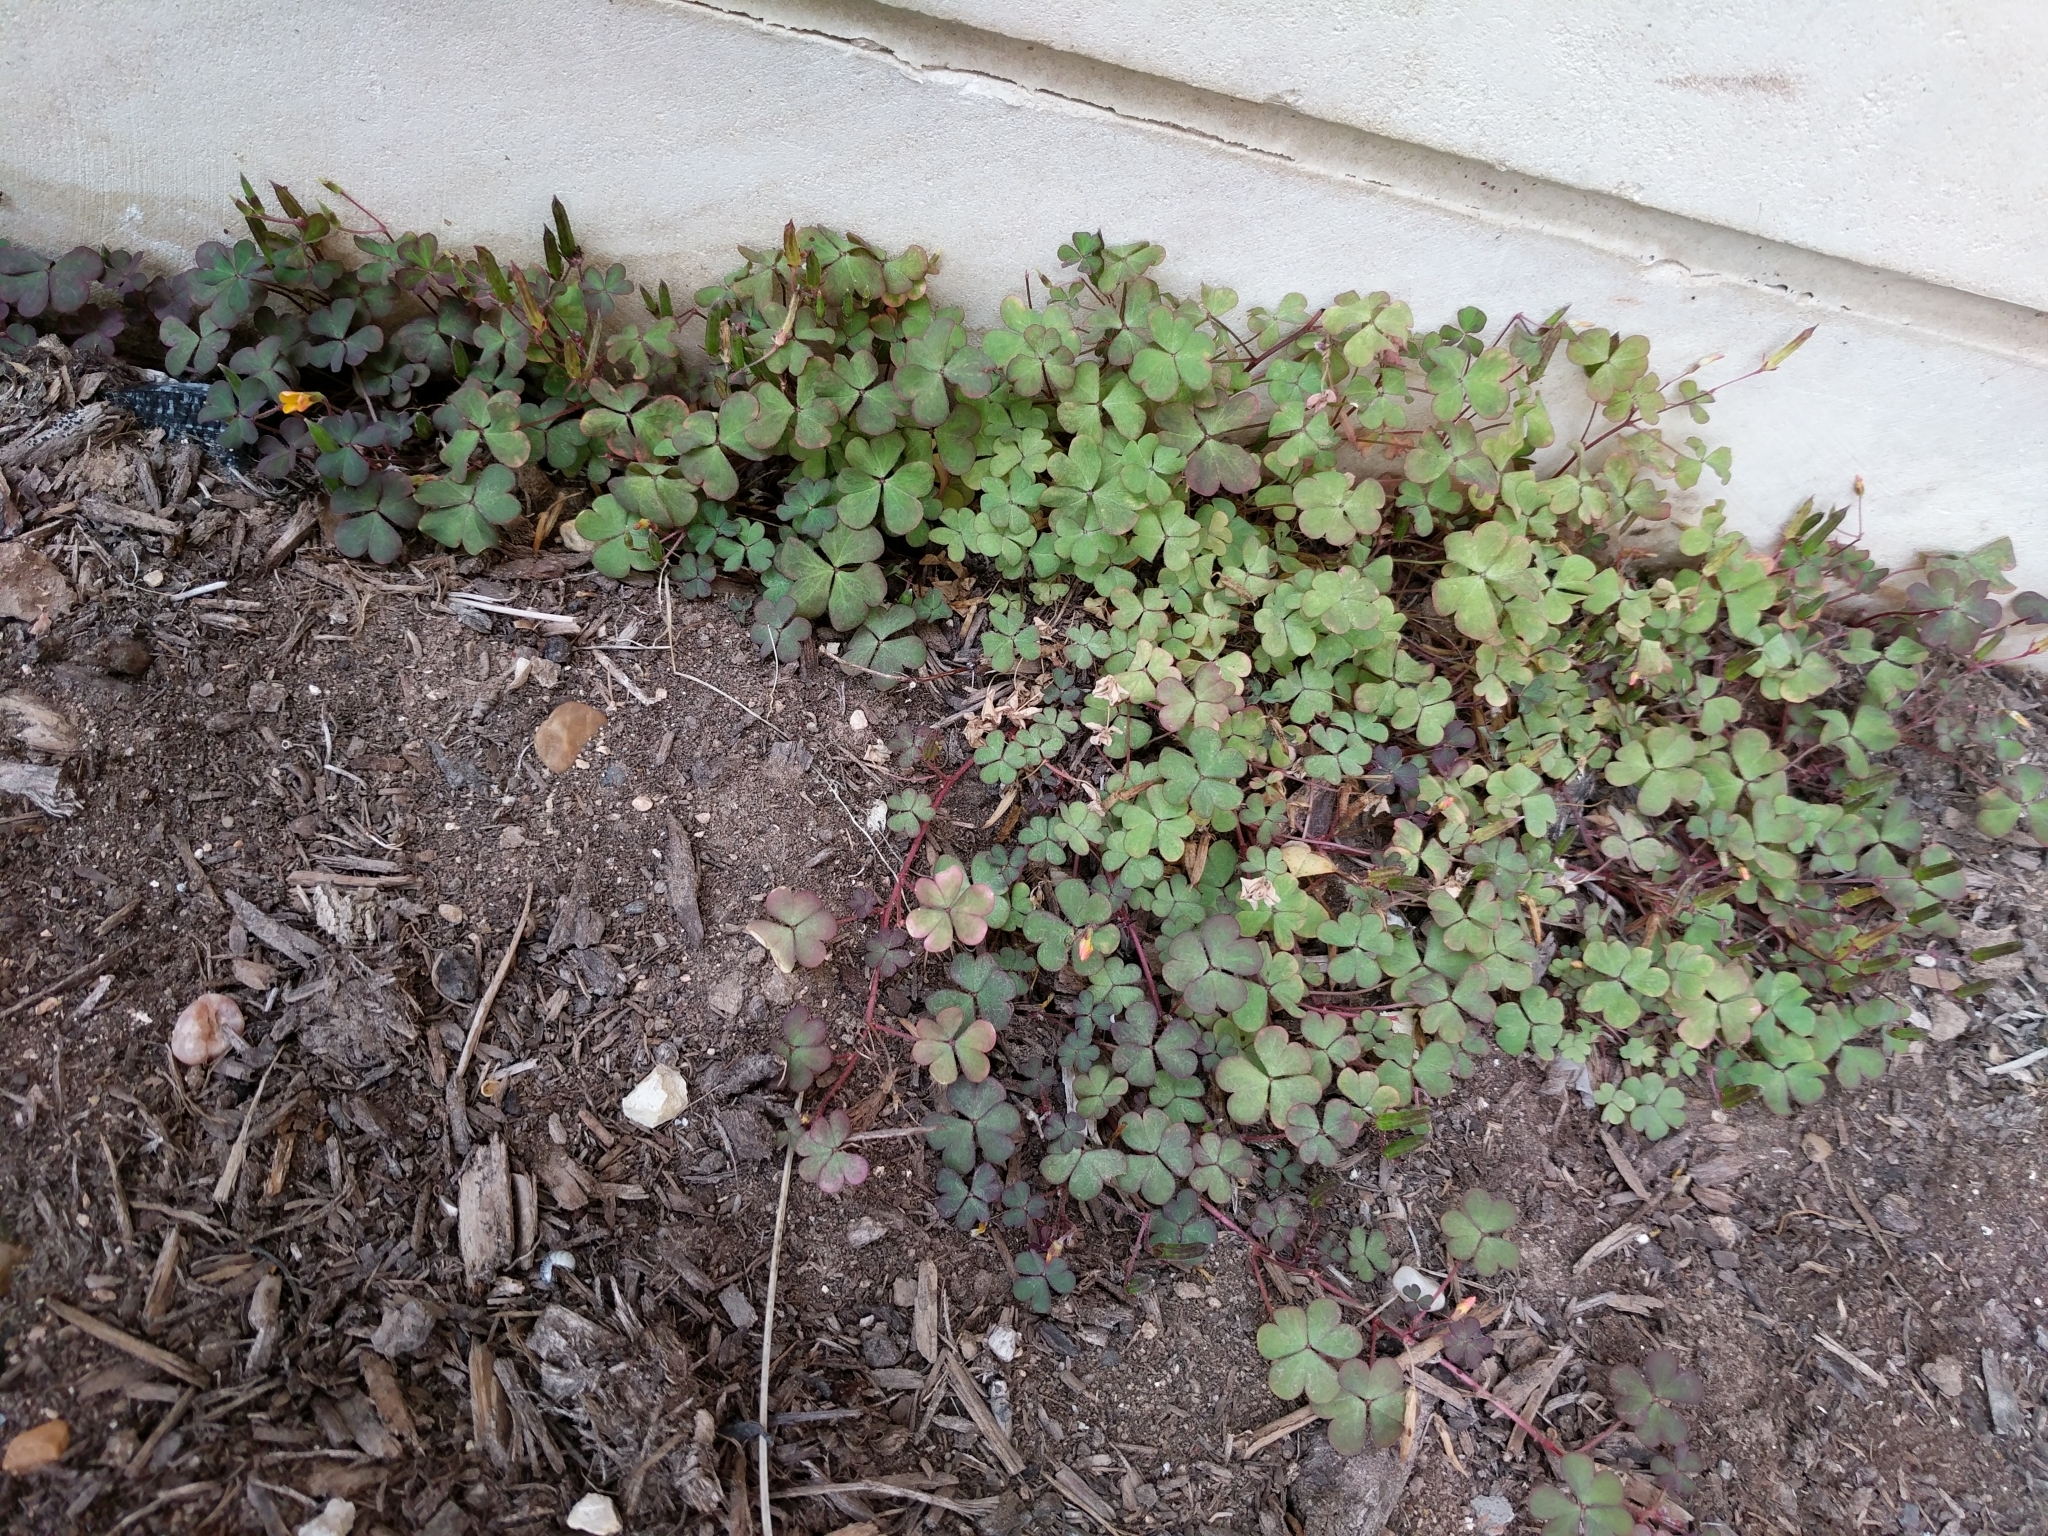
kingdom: Plantae
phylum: Tracheophyta
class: Magnoliopsida
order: Oxalidales
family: Oxalidaceae
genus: Oxalis
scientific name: Oxalis corniculata
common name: Procumbent yellow-sorrel
